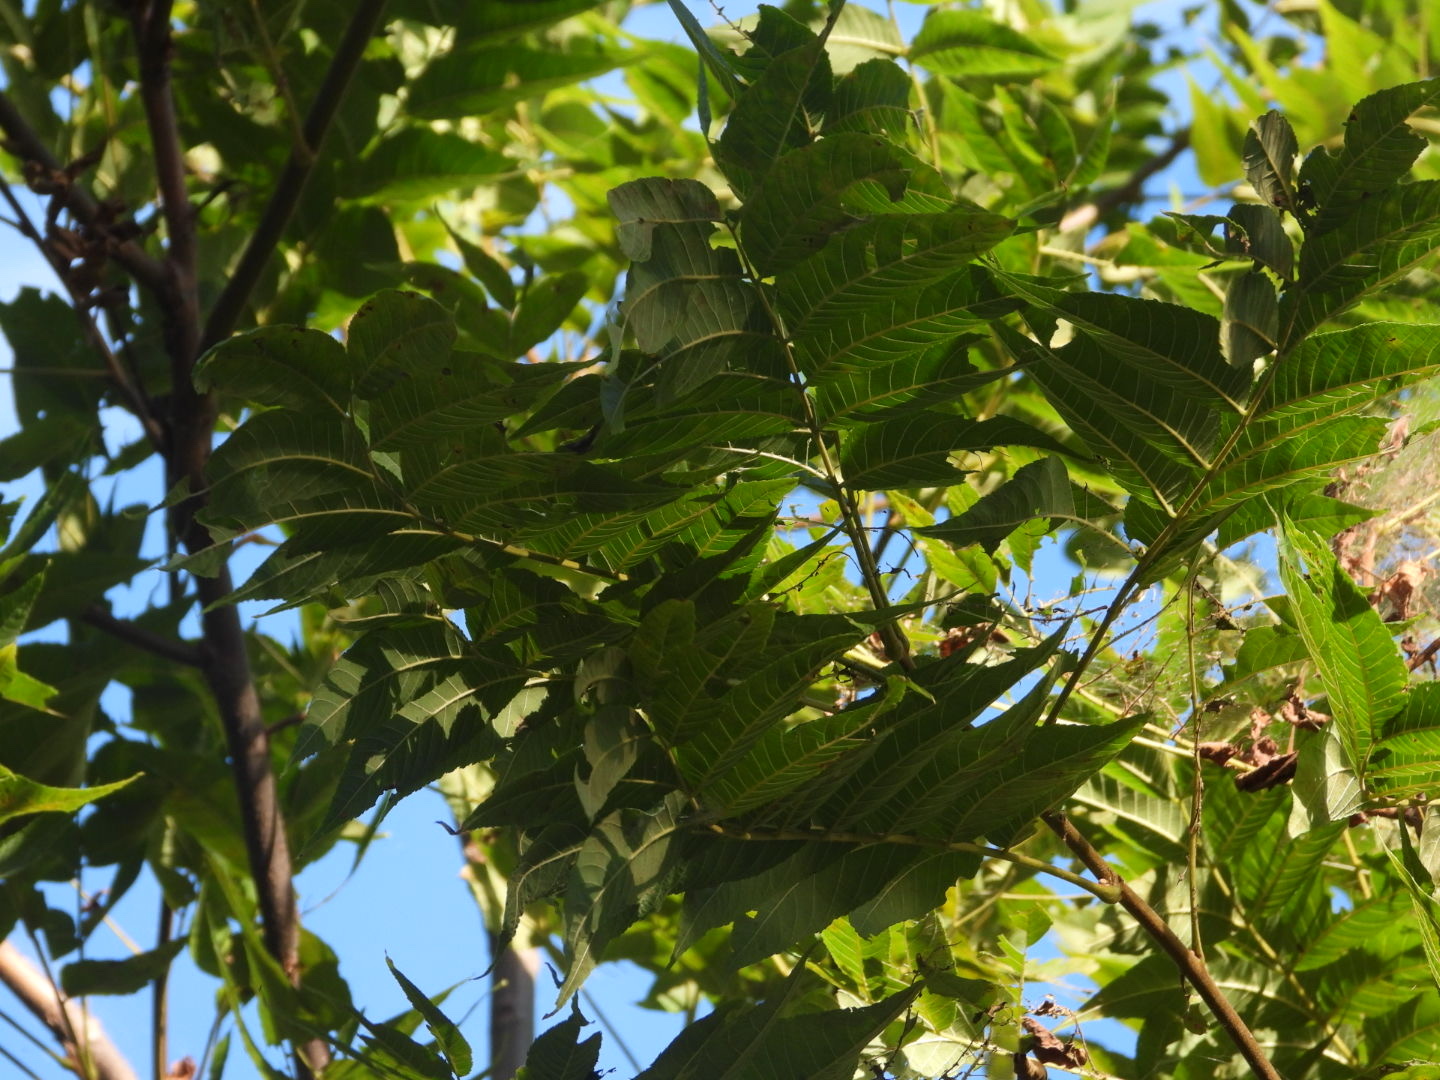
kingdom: Plantae
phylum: Tracheophyta
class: Magnoliopsida
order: Fagales
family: Juglandaceae
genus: Juglans
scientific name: Juglans nigra
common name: Black walnut
